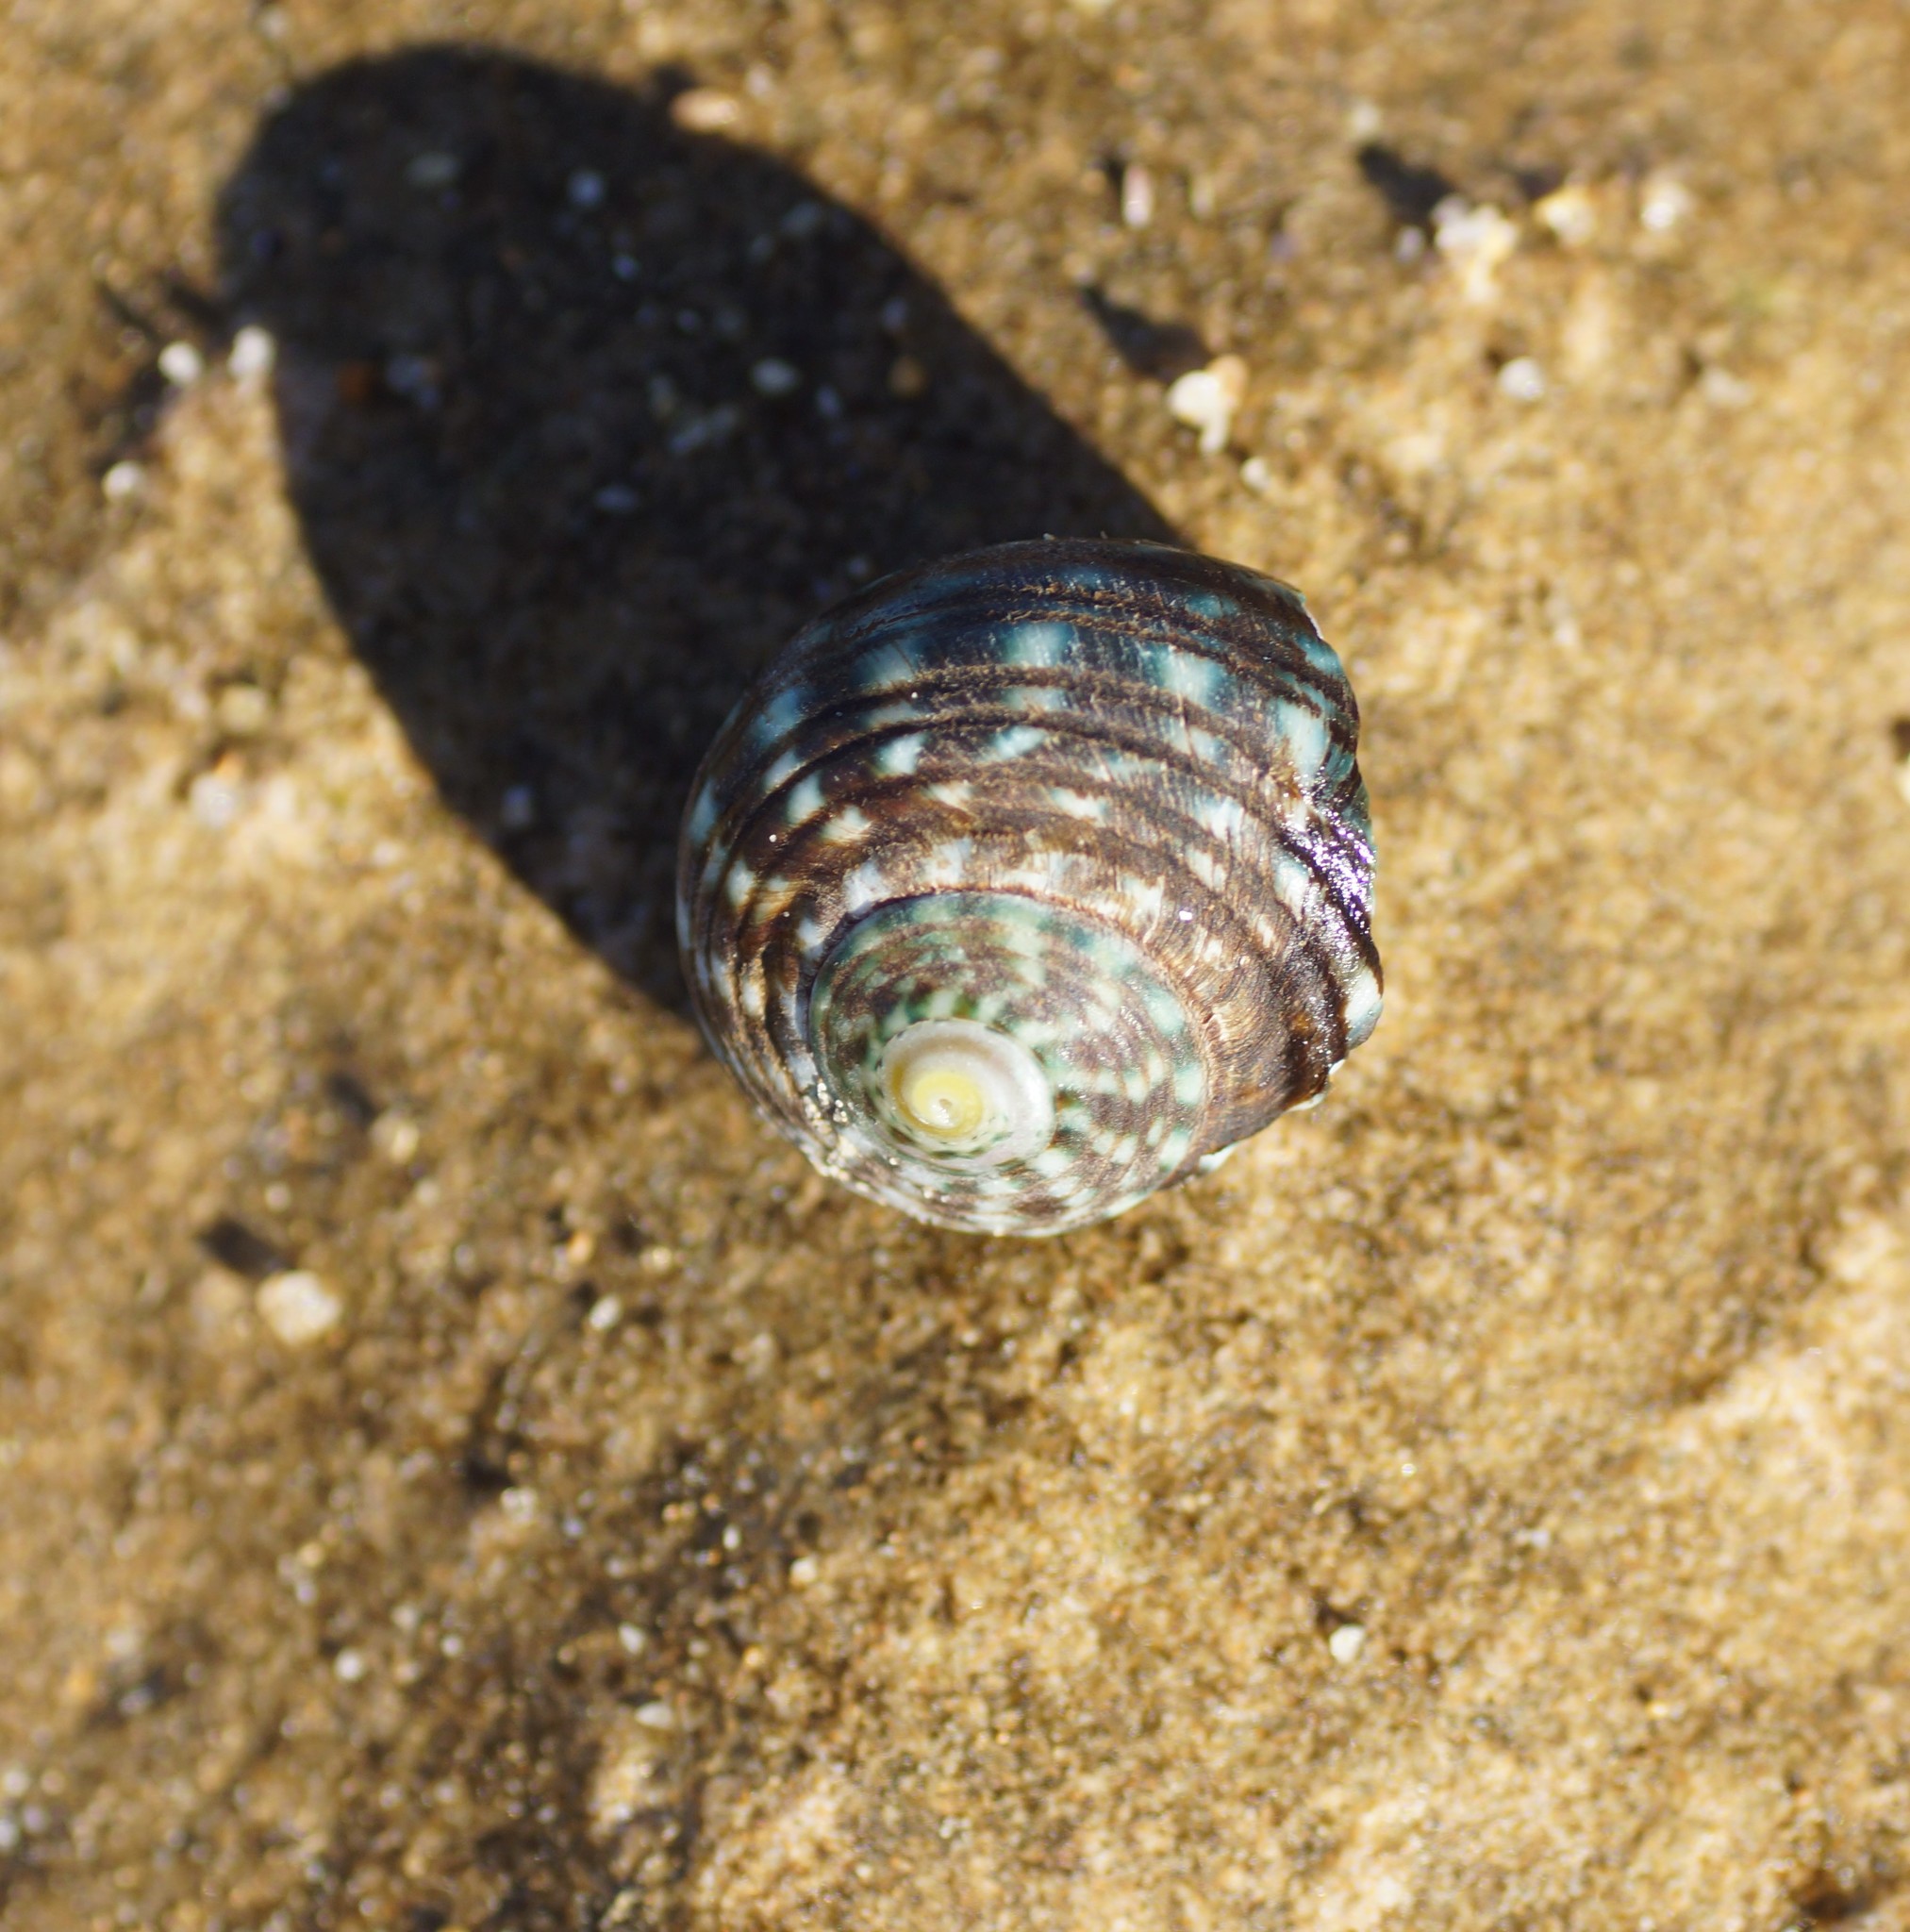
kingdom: Animalia
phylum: Mollusca
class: Gastropoda
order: Trochida
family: Turbinidae
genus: Lunella
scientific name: Lunella undulata
